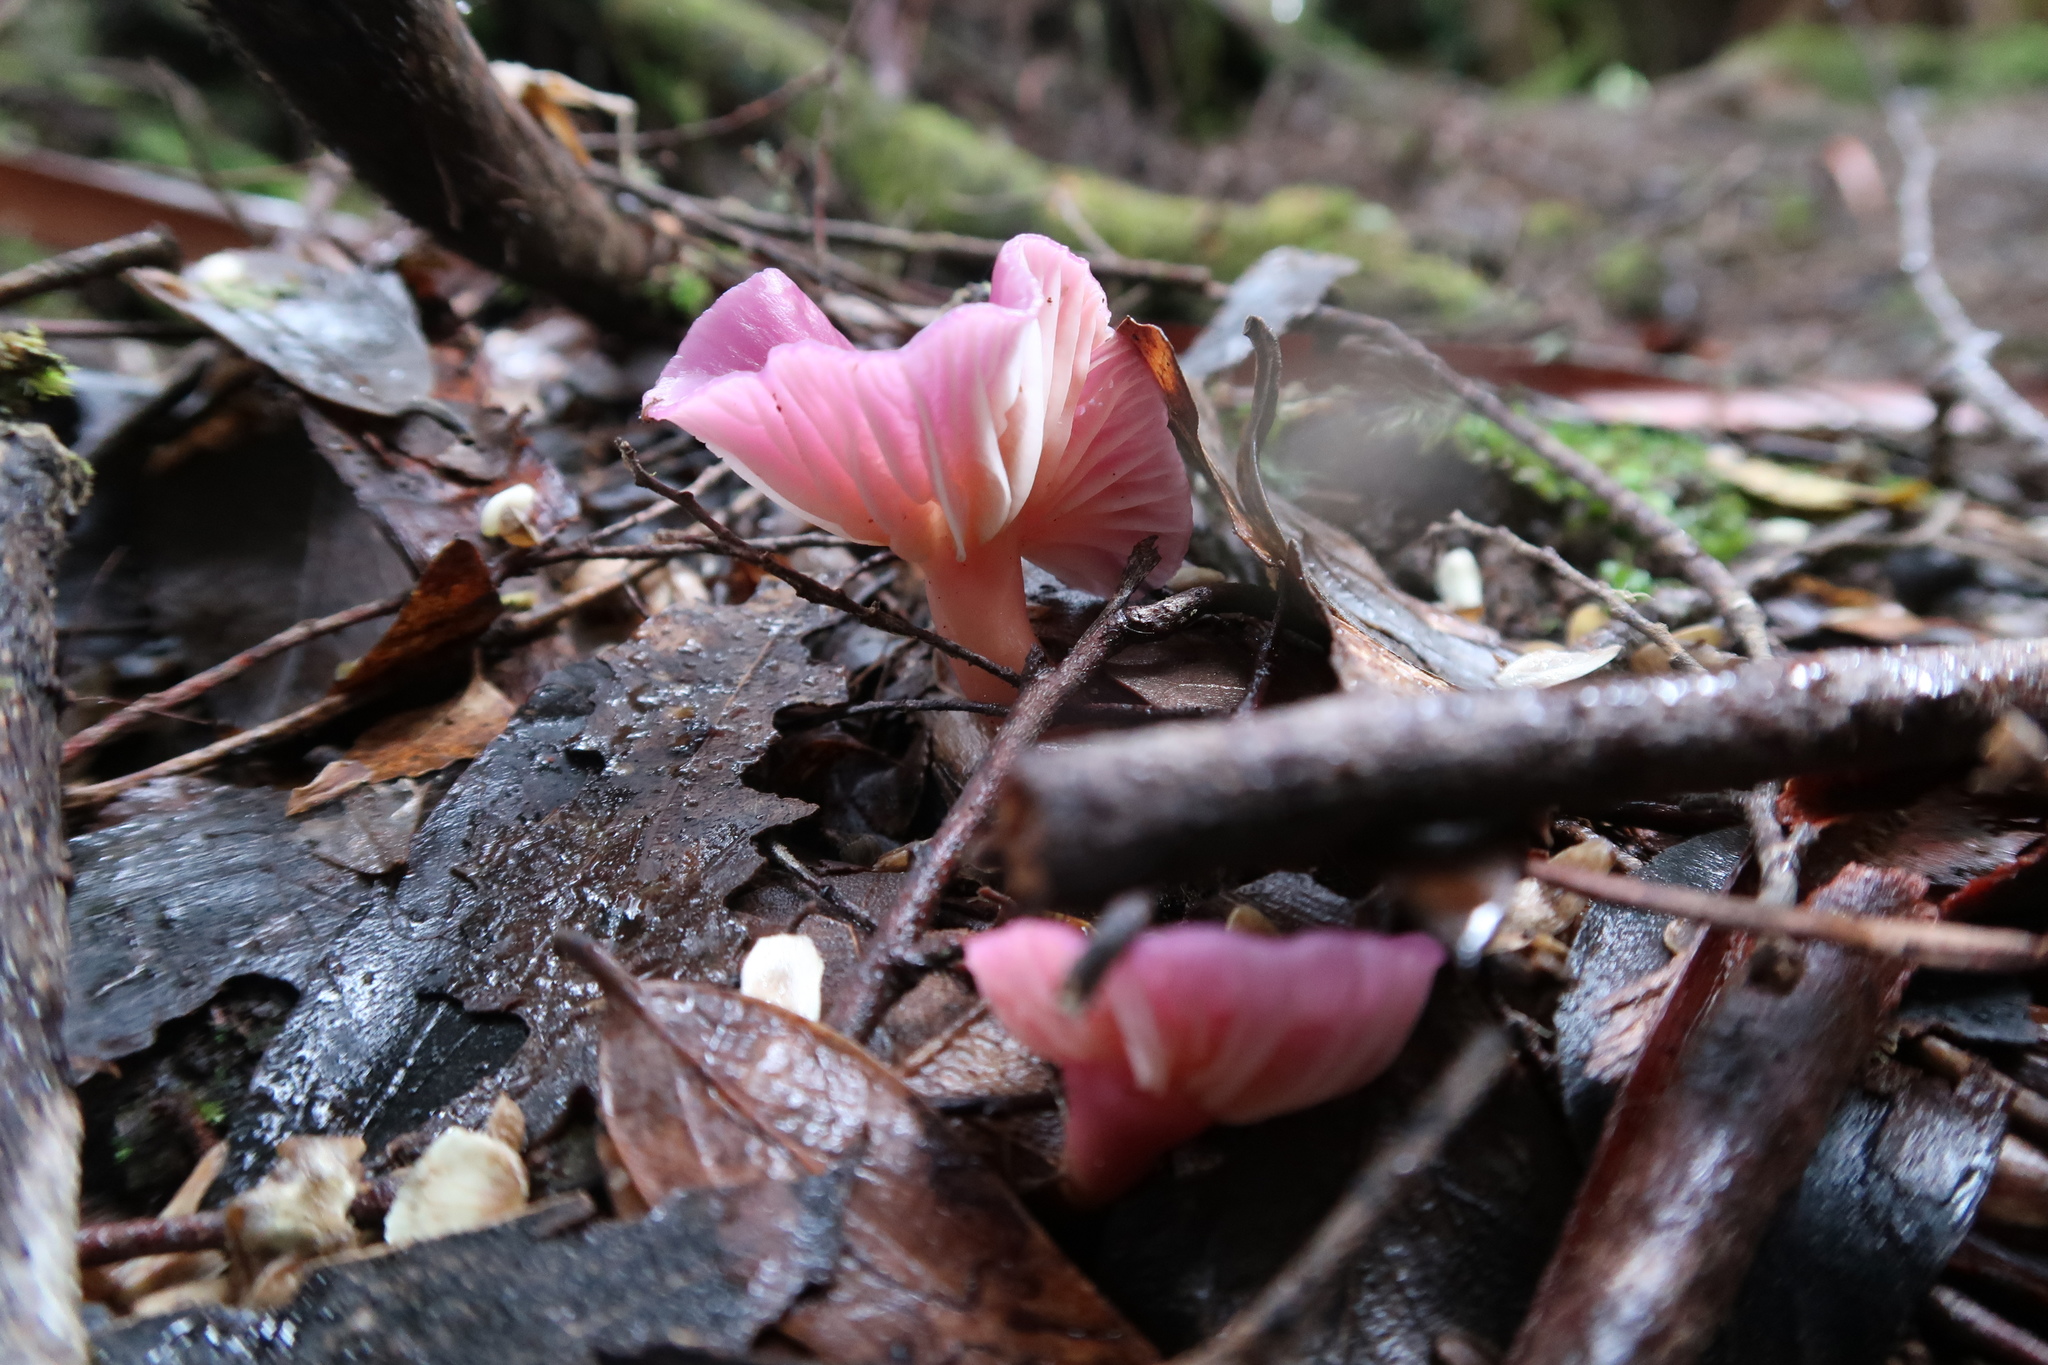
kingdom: Fungi
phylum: Basidiomycota
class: Agaricomycetes
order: Agaricales
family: Hygrophoraceae
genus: Cuphophyllus
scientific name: Cuphophyllus
